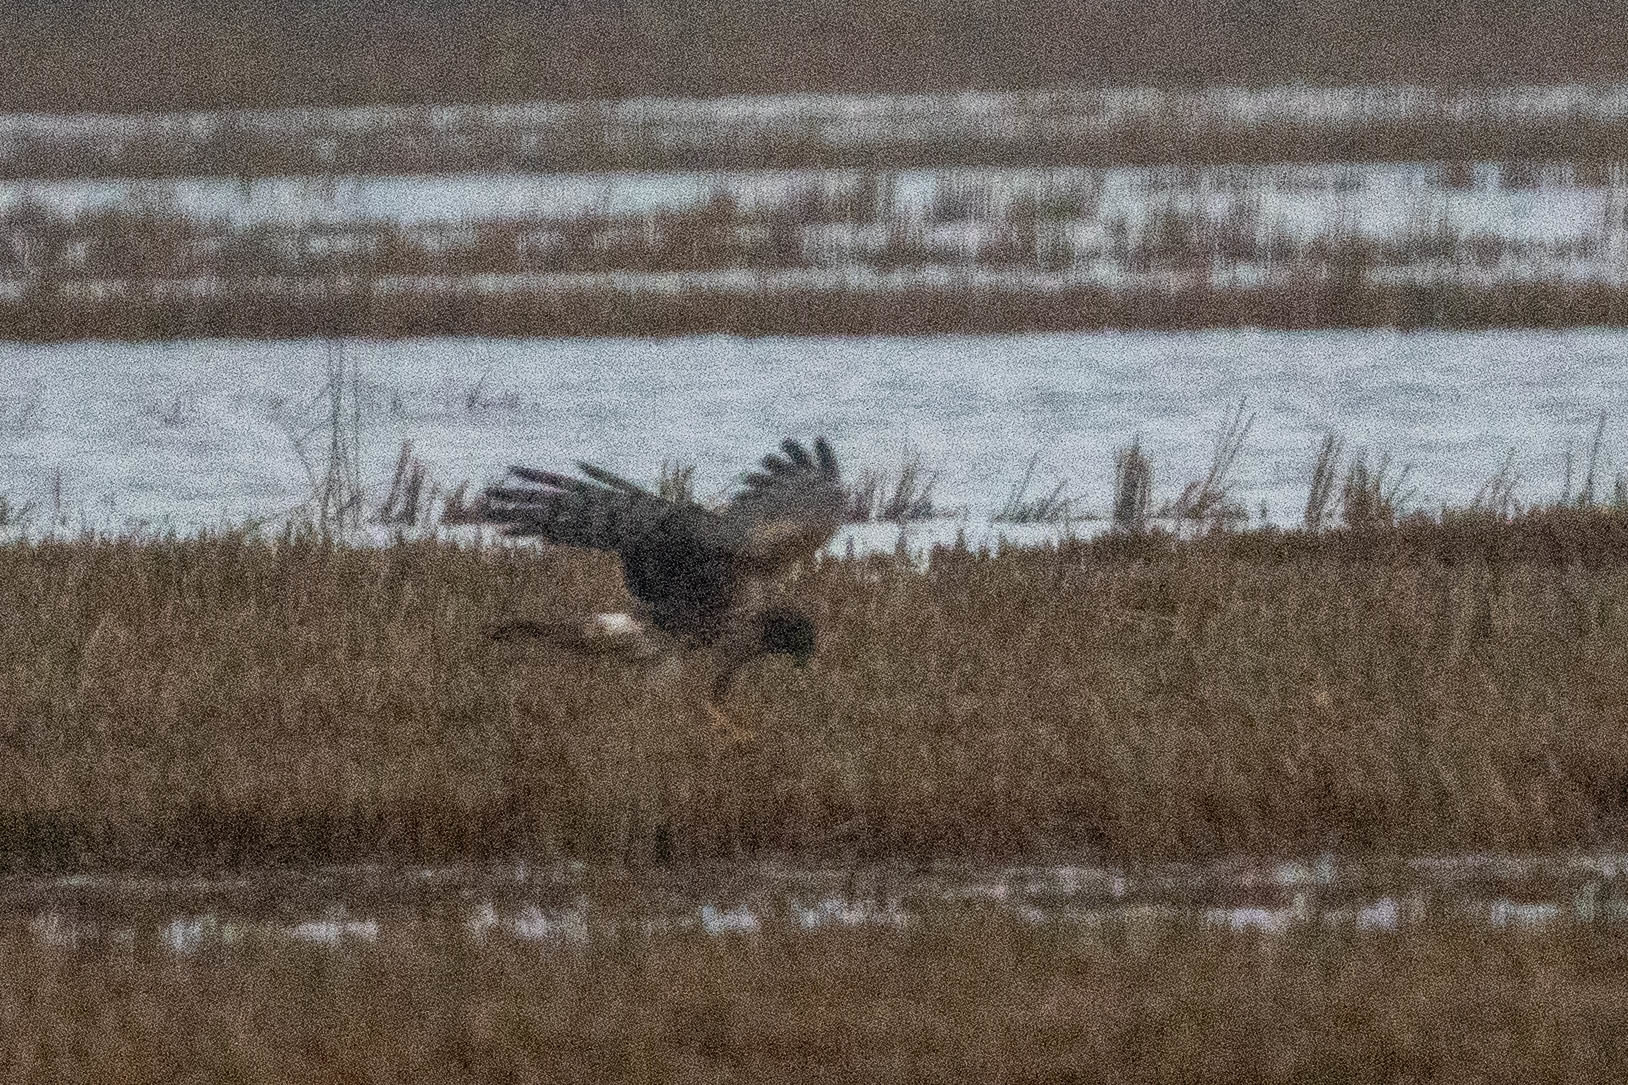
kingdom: Animalia
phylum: Chordata
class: Aves
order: Accipitriformes
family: Accipitridae
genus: Circus
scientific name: Circus cyaneus
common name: Hen harrier
